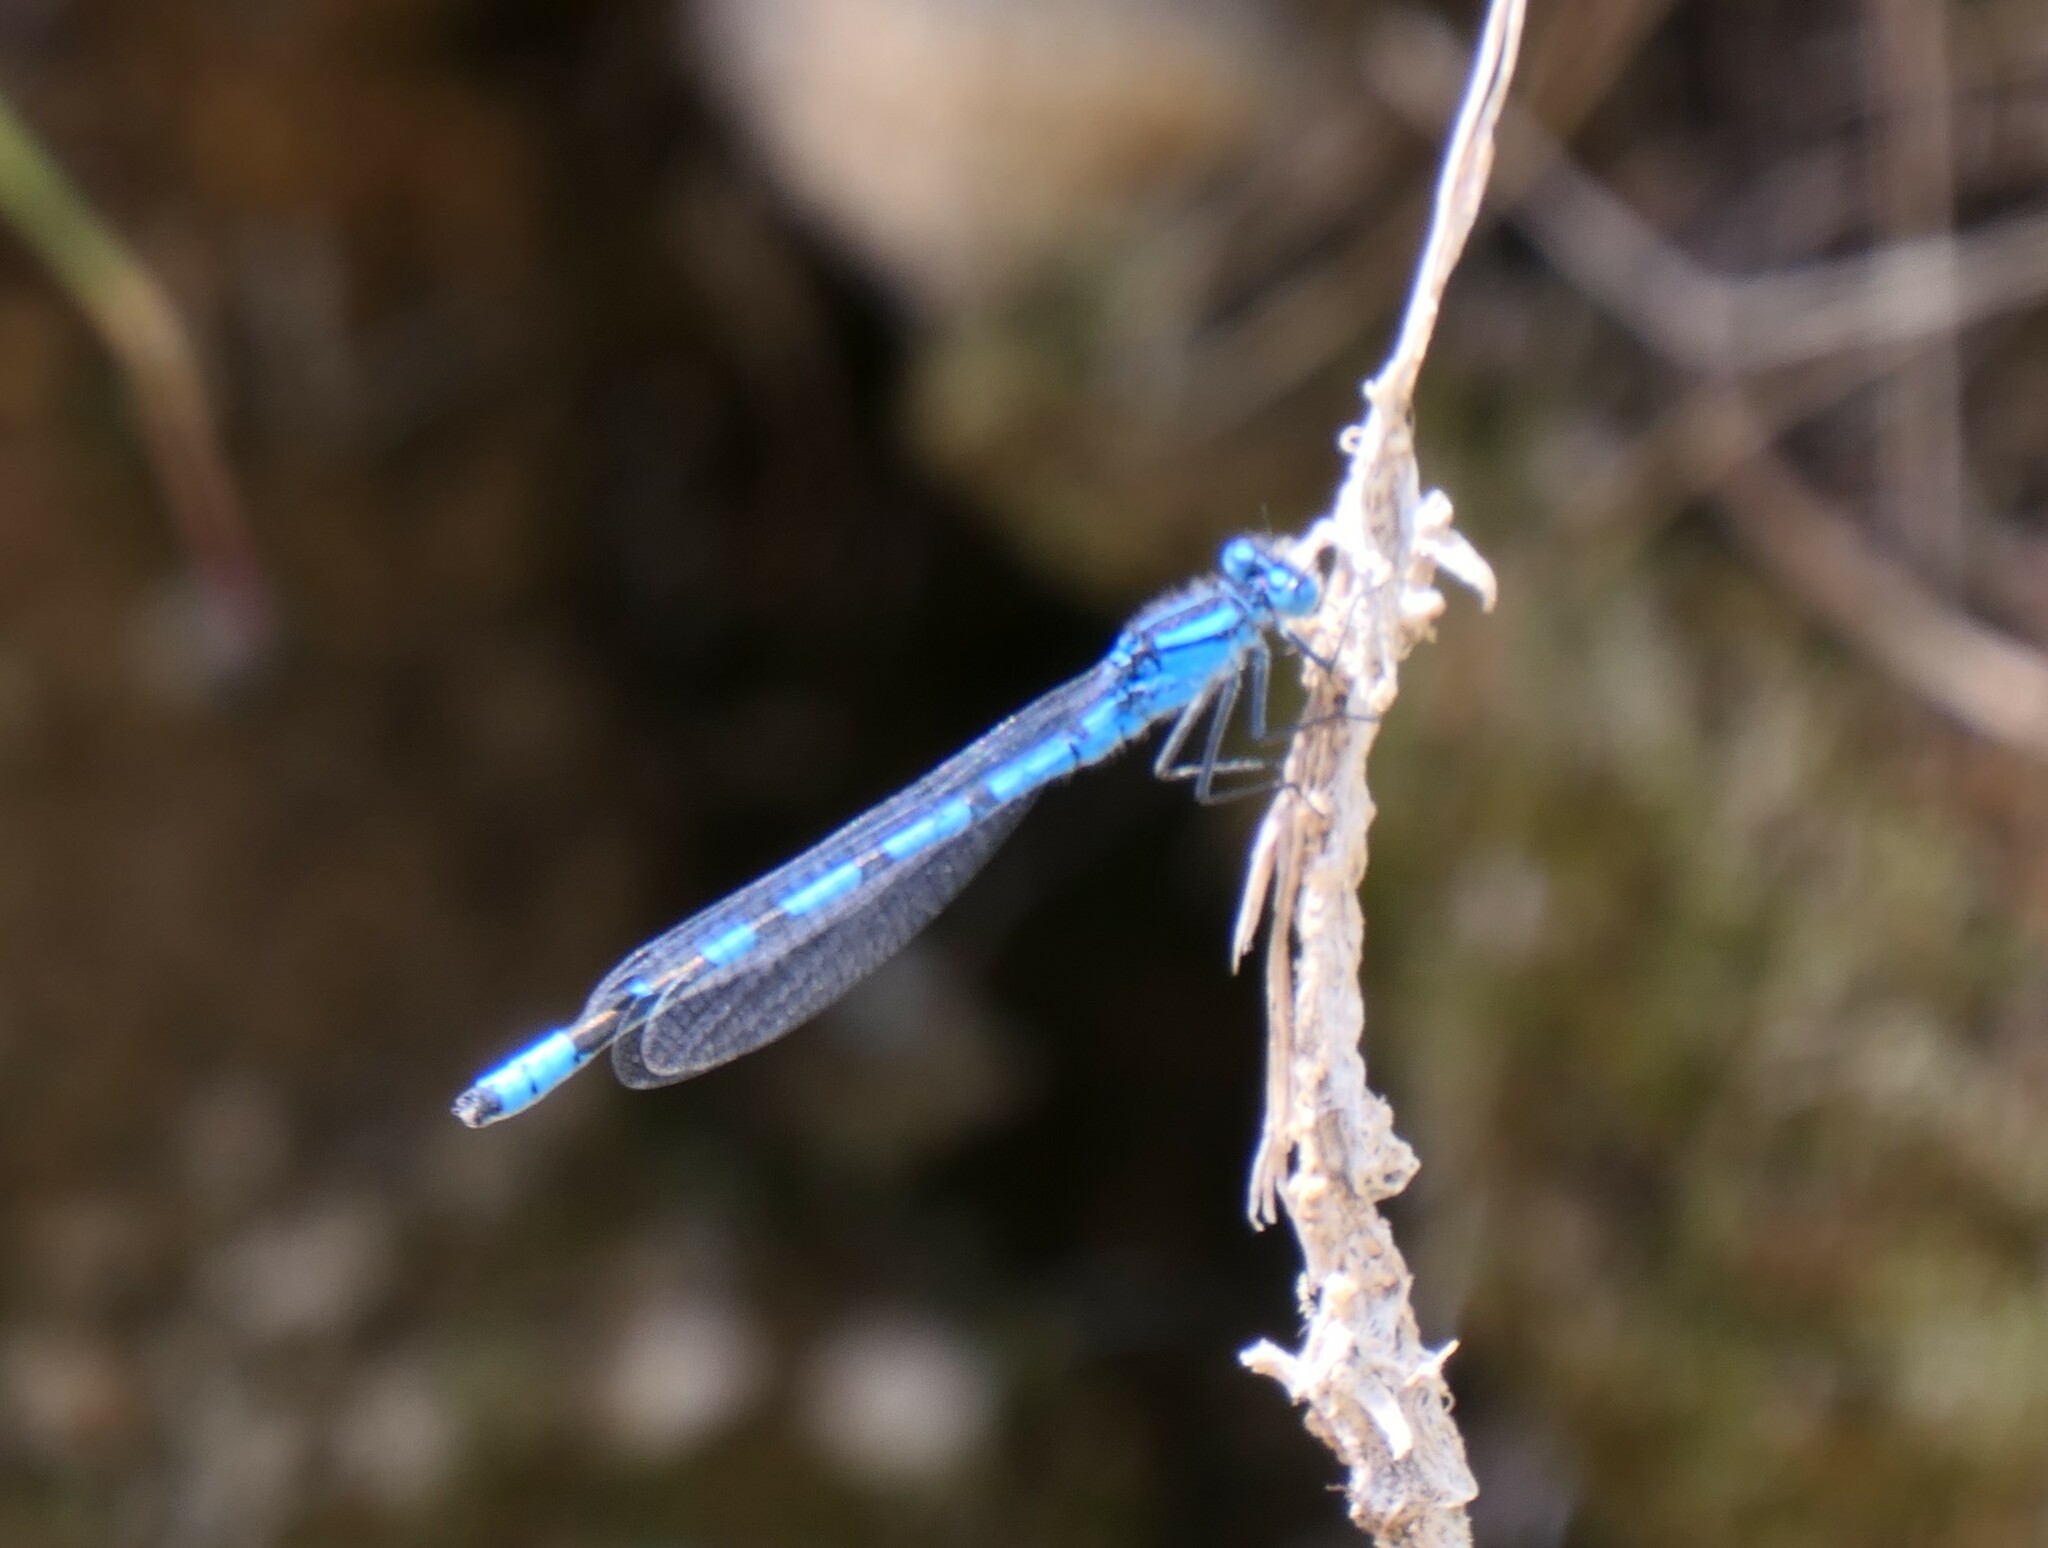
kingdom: Animalia
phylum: Arthropoda
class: Insecta
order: Odonata
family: Coenagrionidae
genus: Enallagma
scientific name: Enallagma cyathigerum
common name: Common blue damselfly
